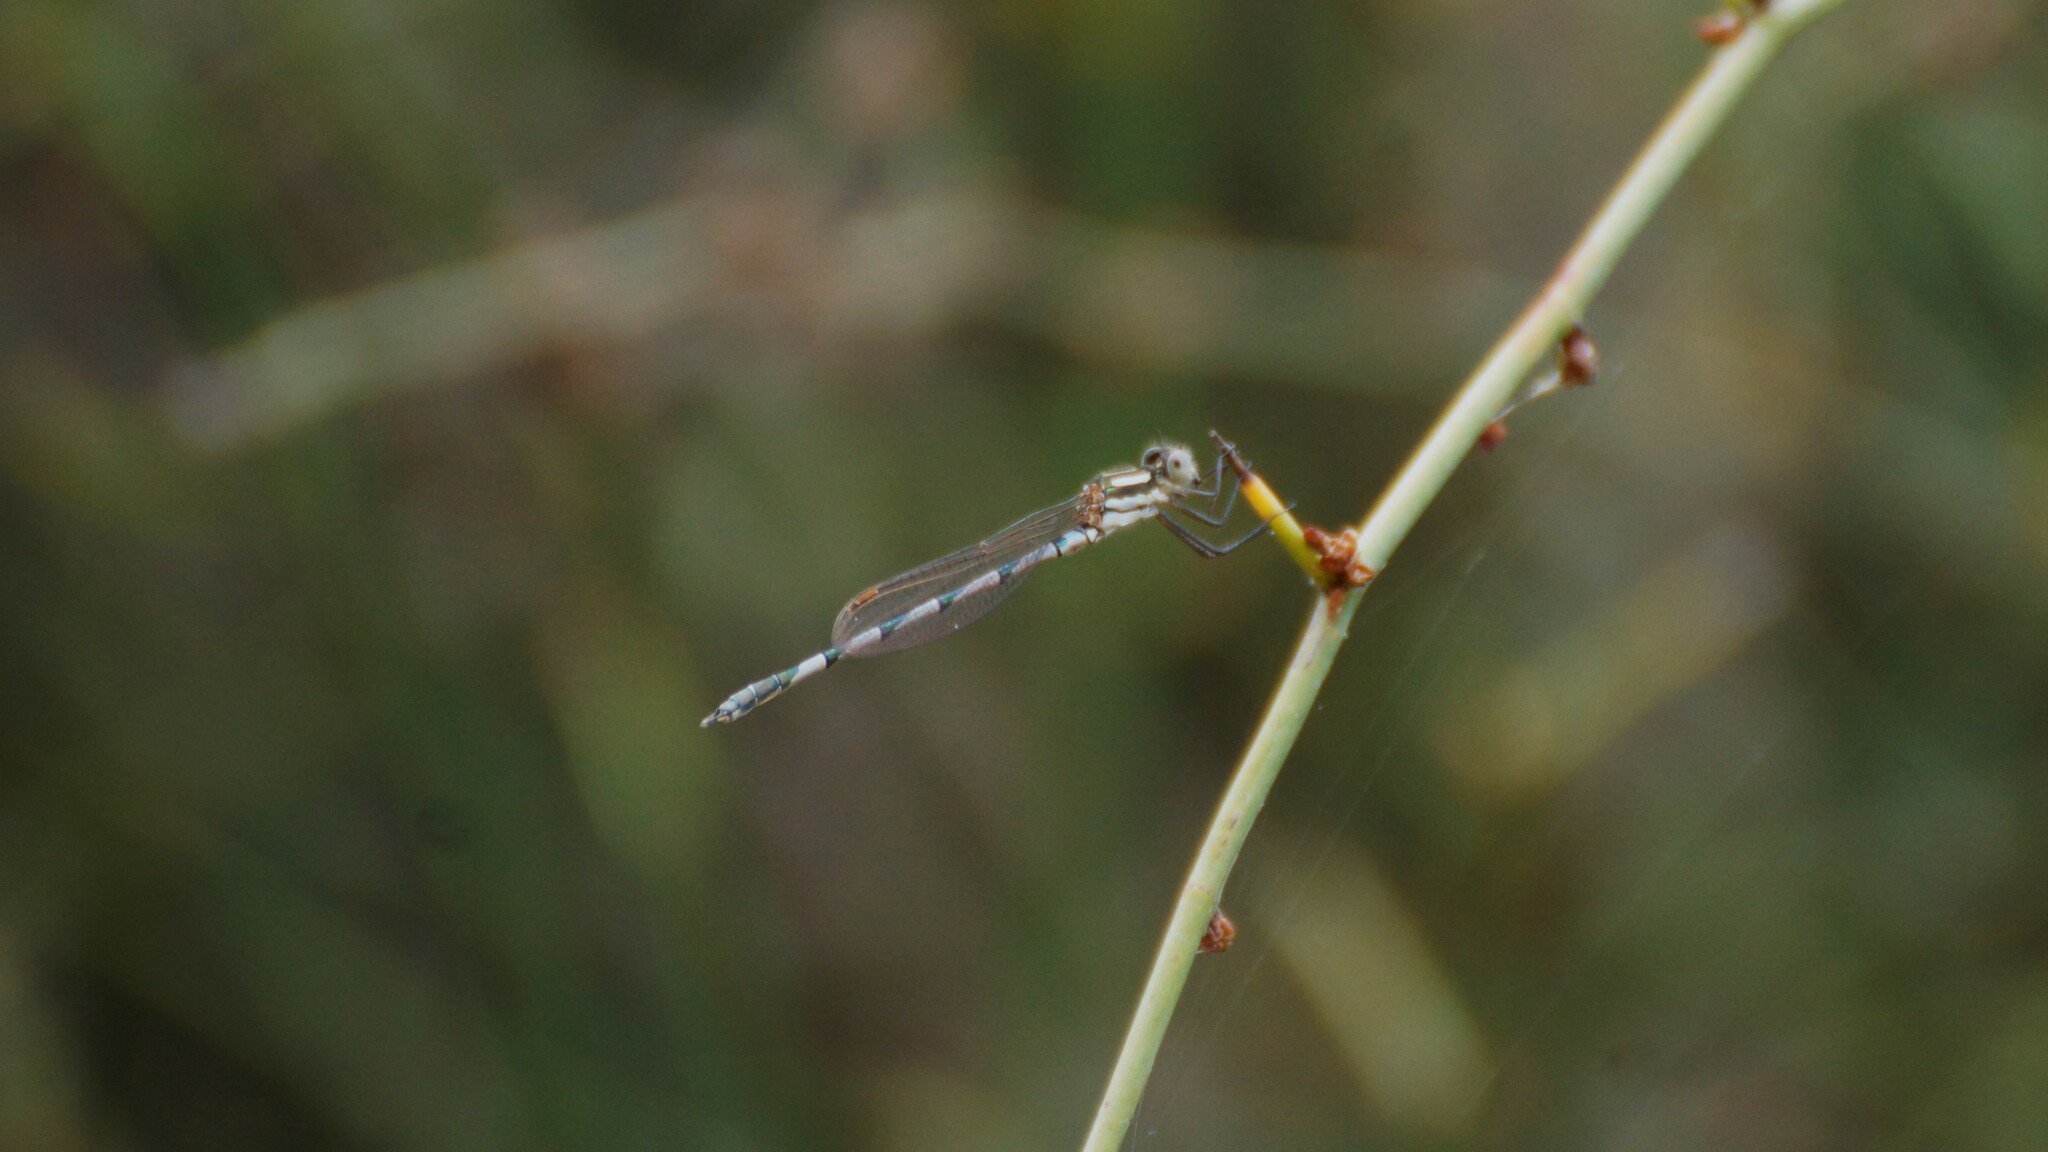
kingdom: Animalia
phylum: Arthropoda
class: Insecta
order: Odonata
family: Lestidae
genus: Austrolestes
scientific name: Austrolestes annulosus
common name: Blue ringtail
